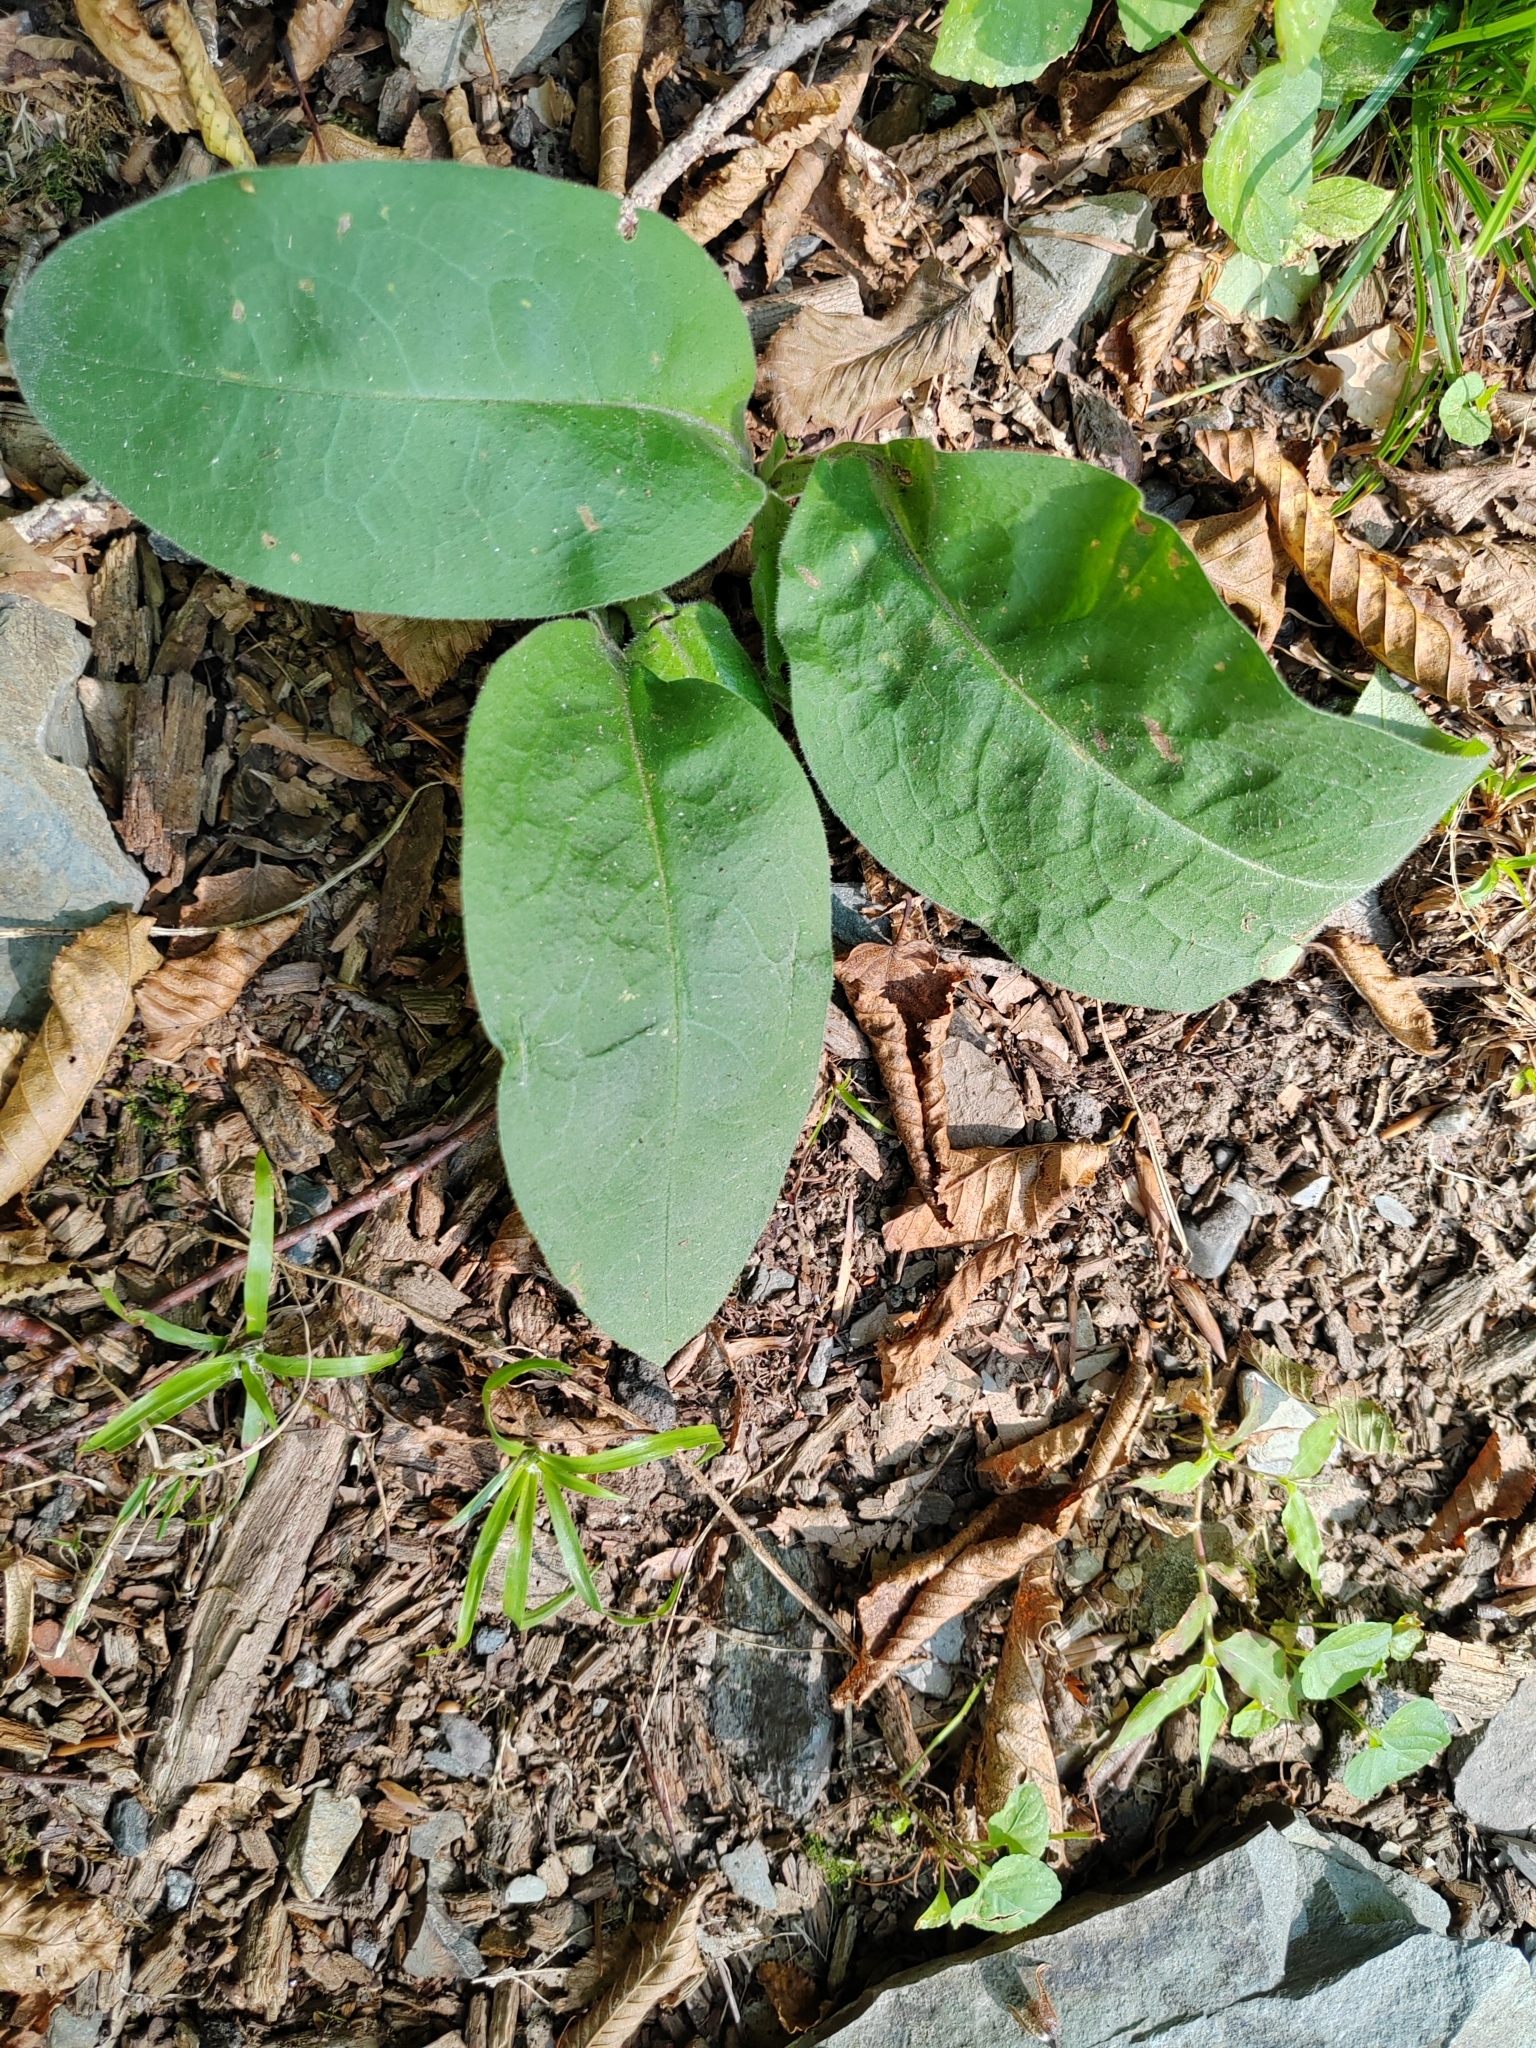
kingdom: Plantae
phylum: Tracheophyta
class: Magnoliopsida
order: Boraginales
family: Boraginaceae
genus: Pulmonaria
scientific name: Pulmonaria mollis
